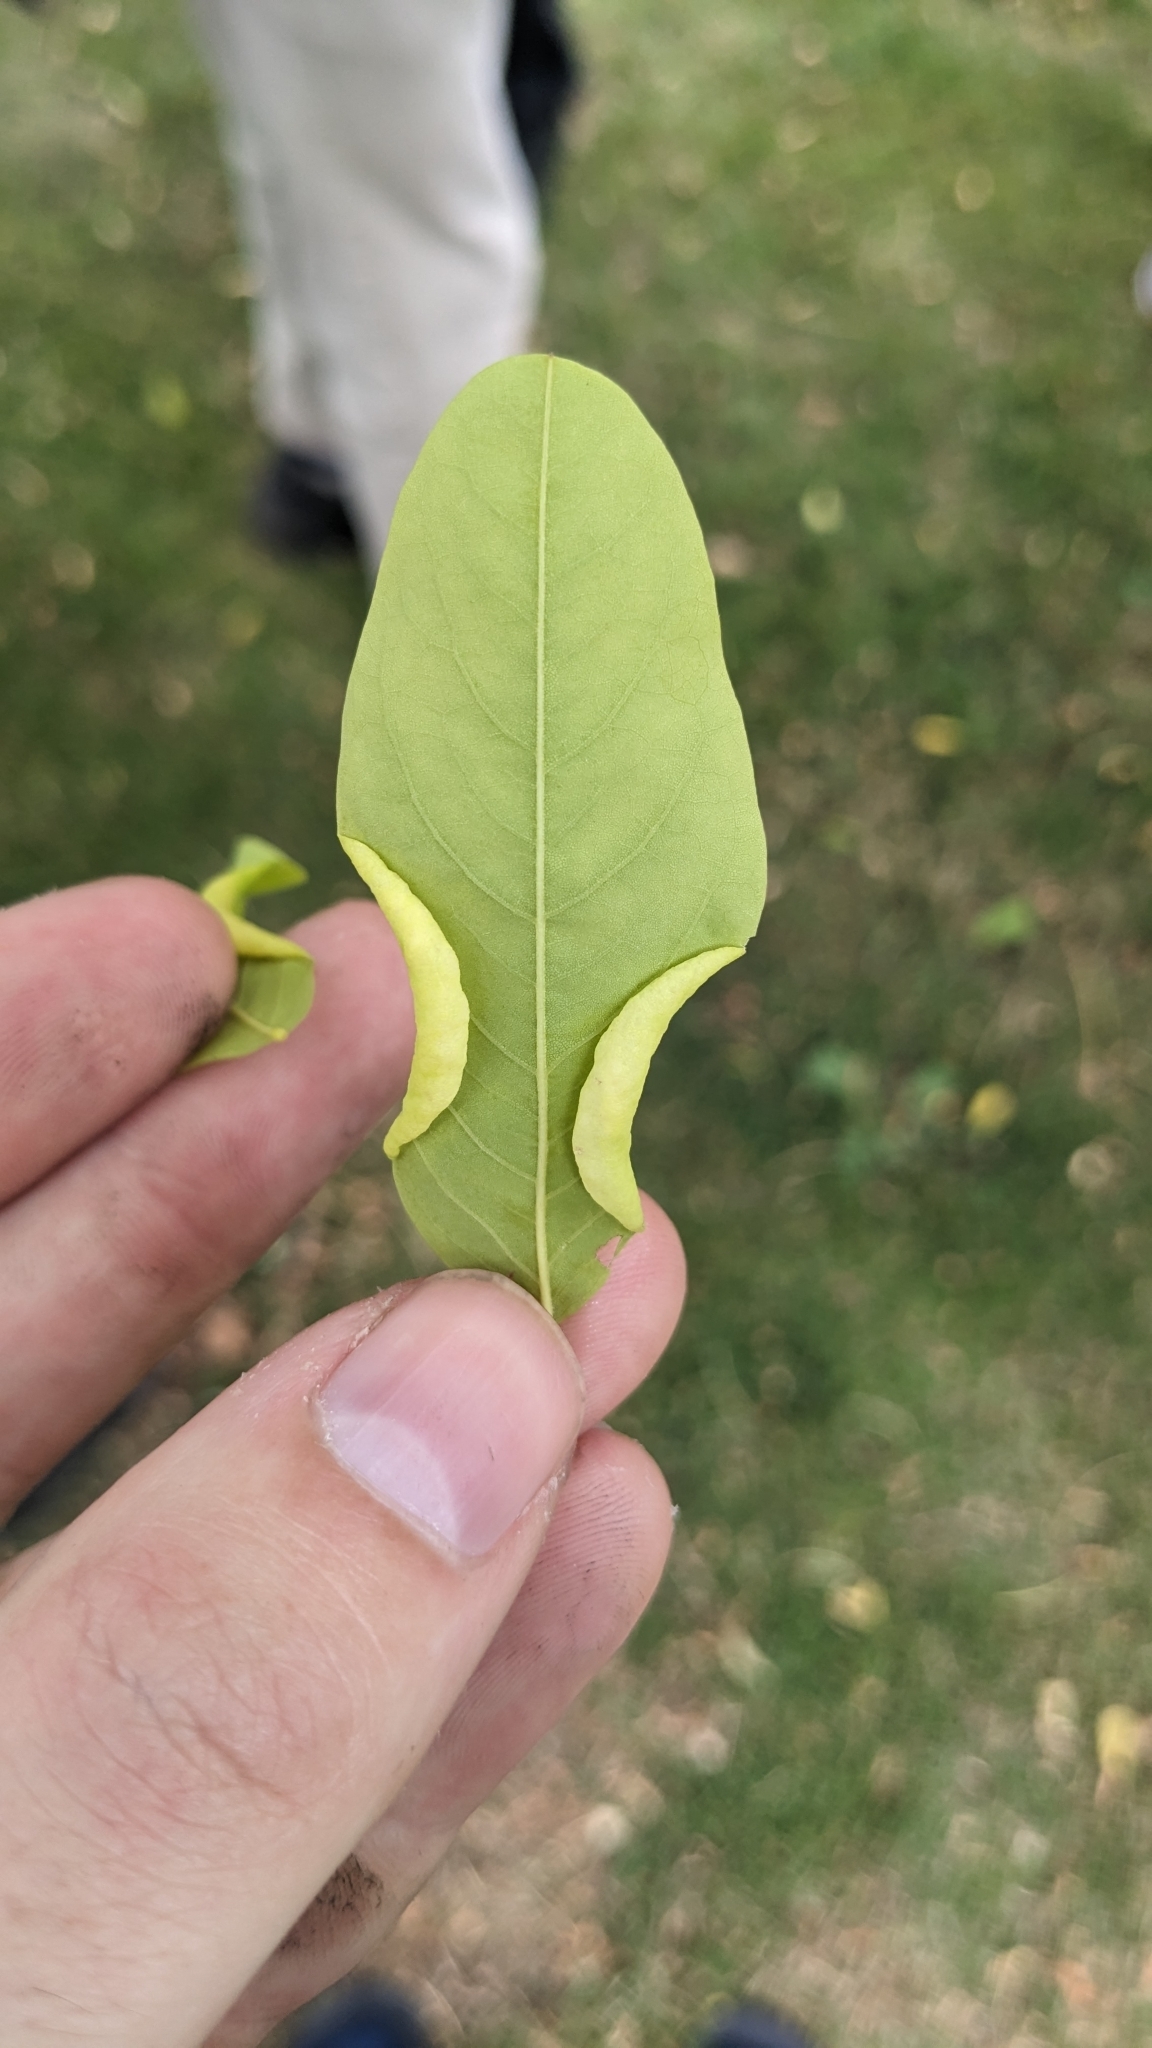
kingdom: Animalia
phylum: Arthropoda
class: Insecta
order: Diptera
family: Cecidomyiidae
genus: Obolodiplosis
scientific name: Obolodiplosis robiniae
